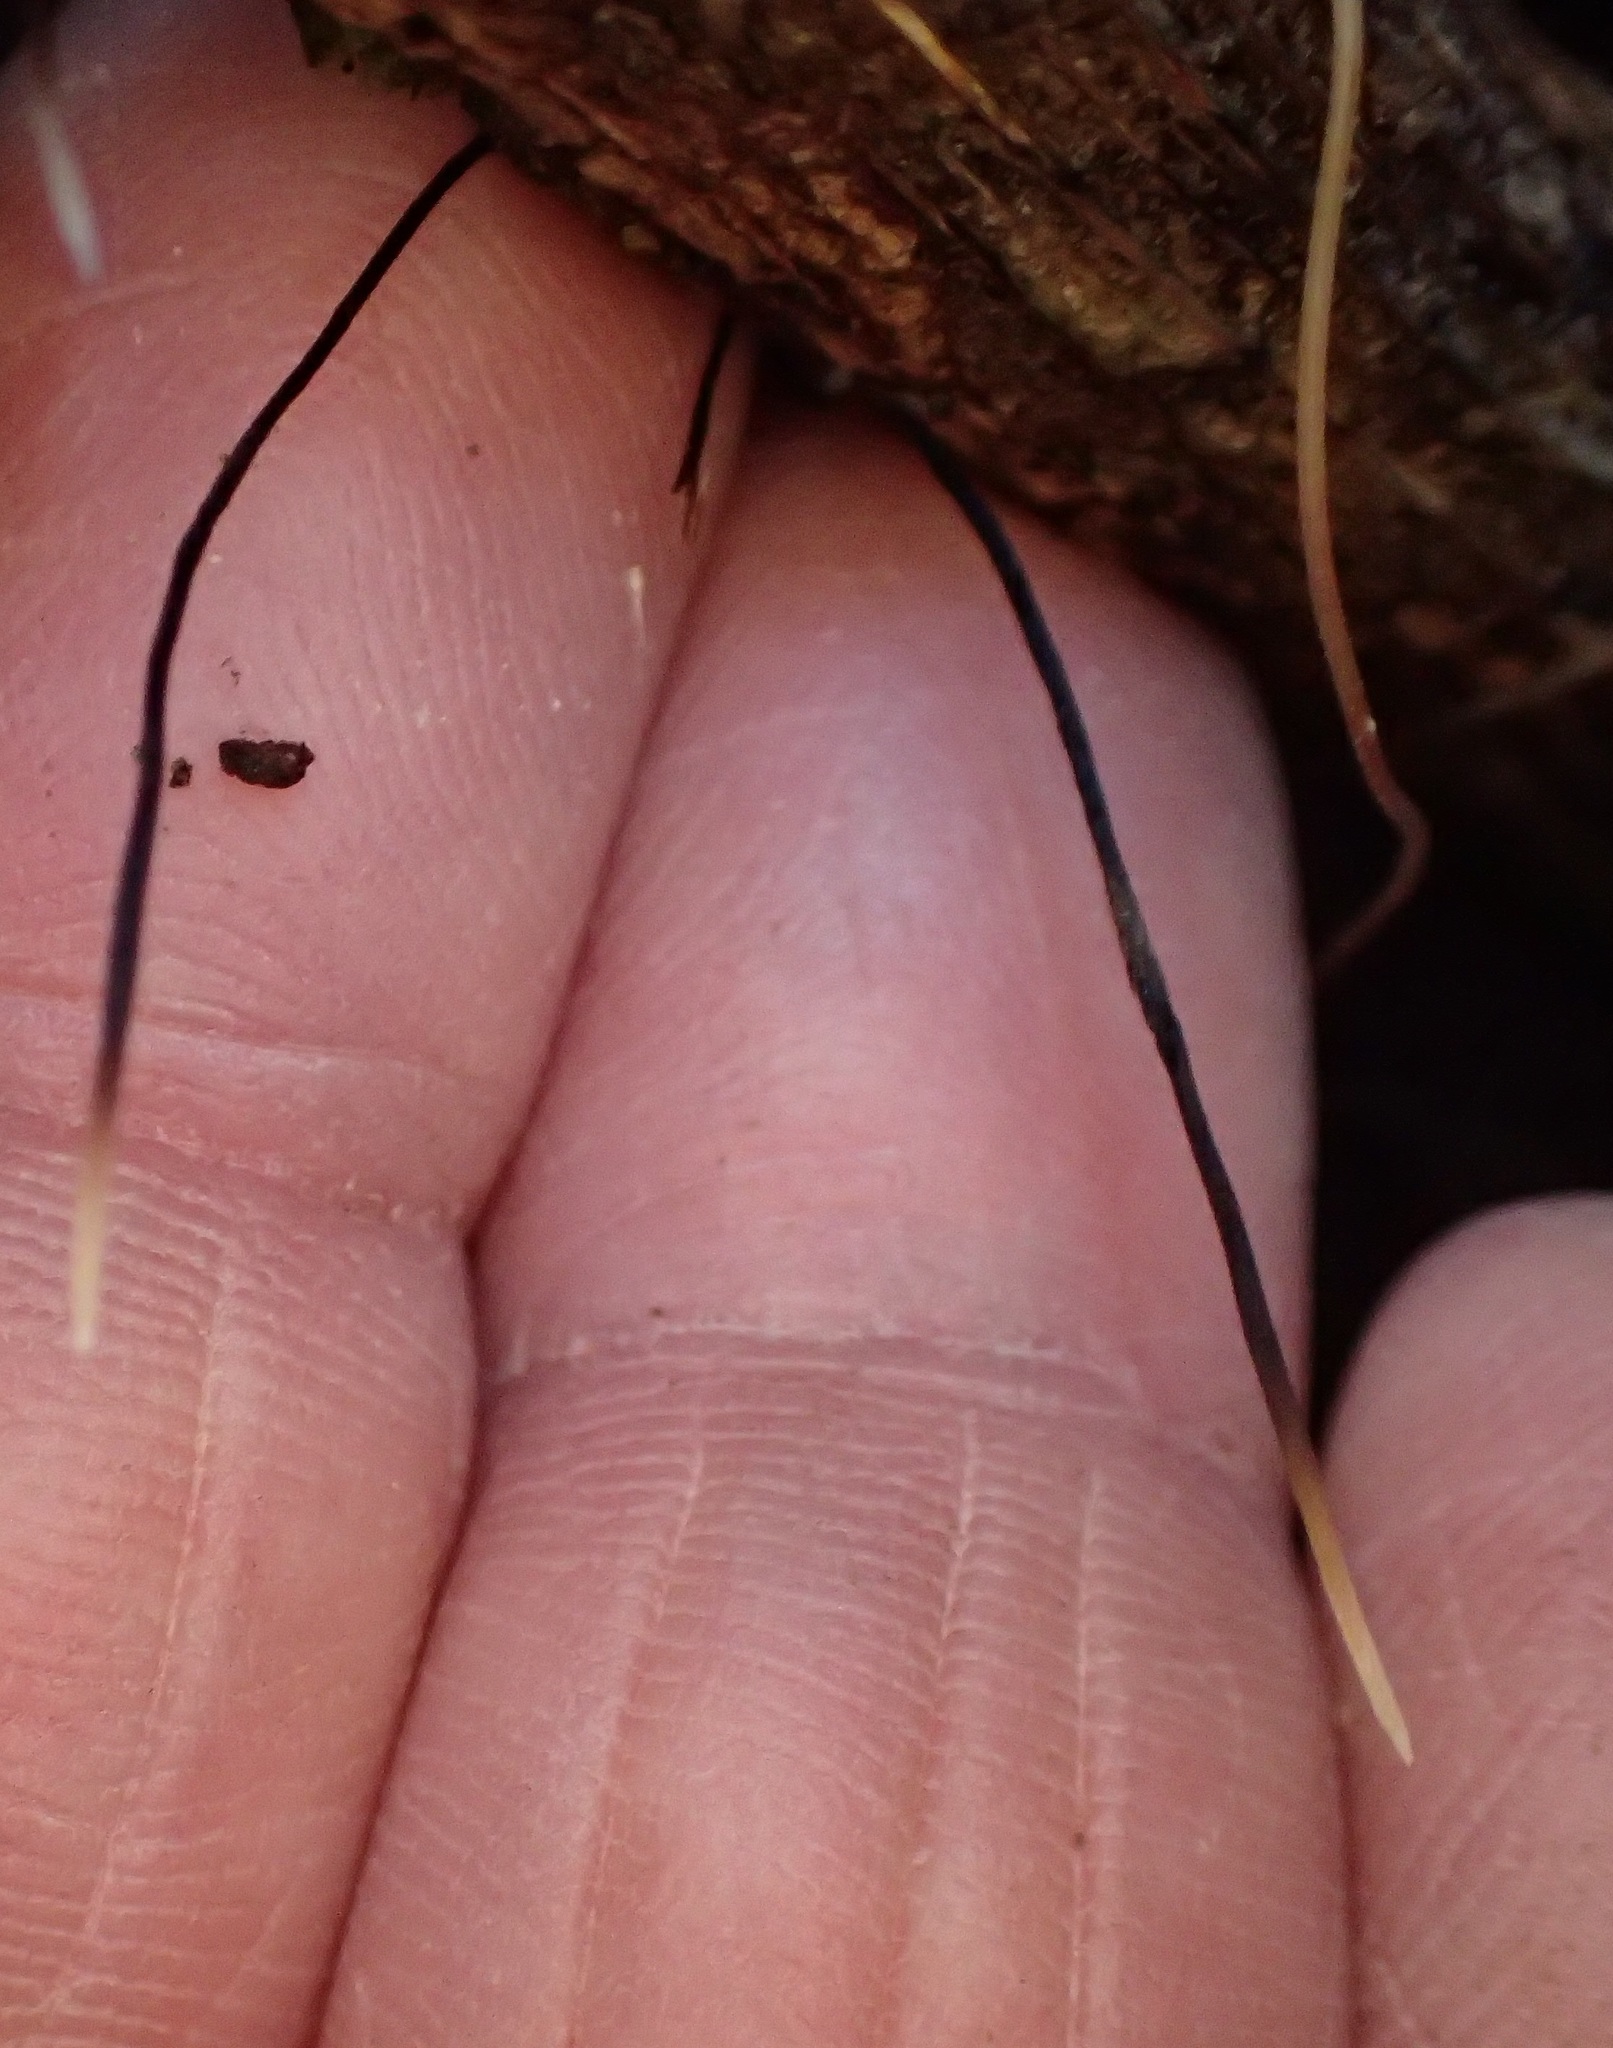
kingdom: Fungi
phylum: Ascomycota
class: Sordariomycetes
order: Xylariales
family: Xylariaceae
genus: Xylaria
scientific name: Xylaria filiformis
